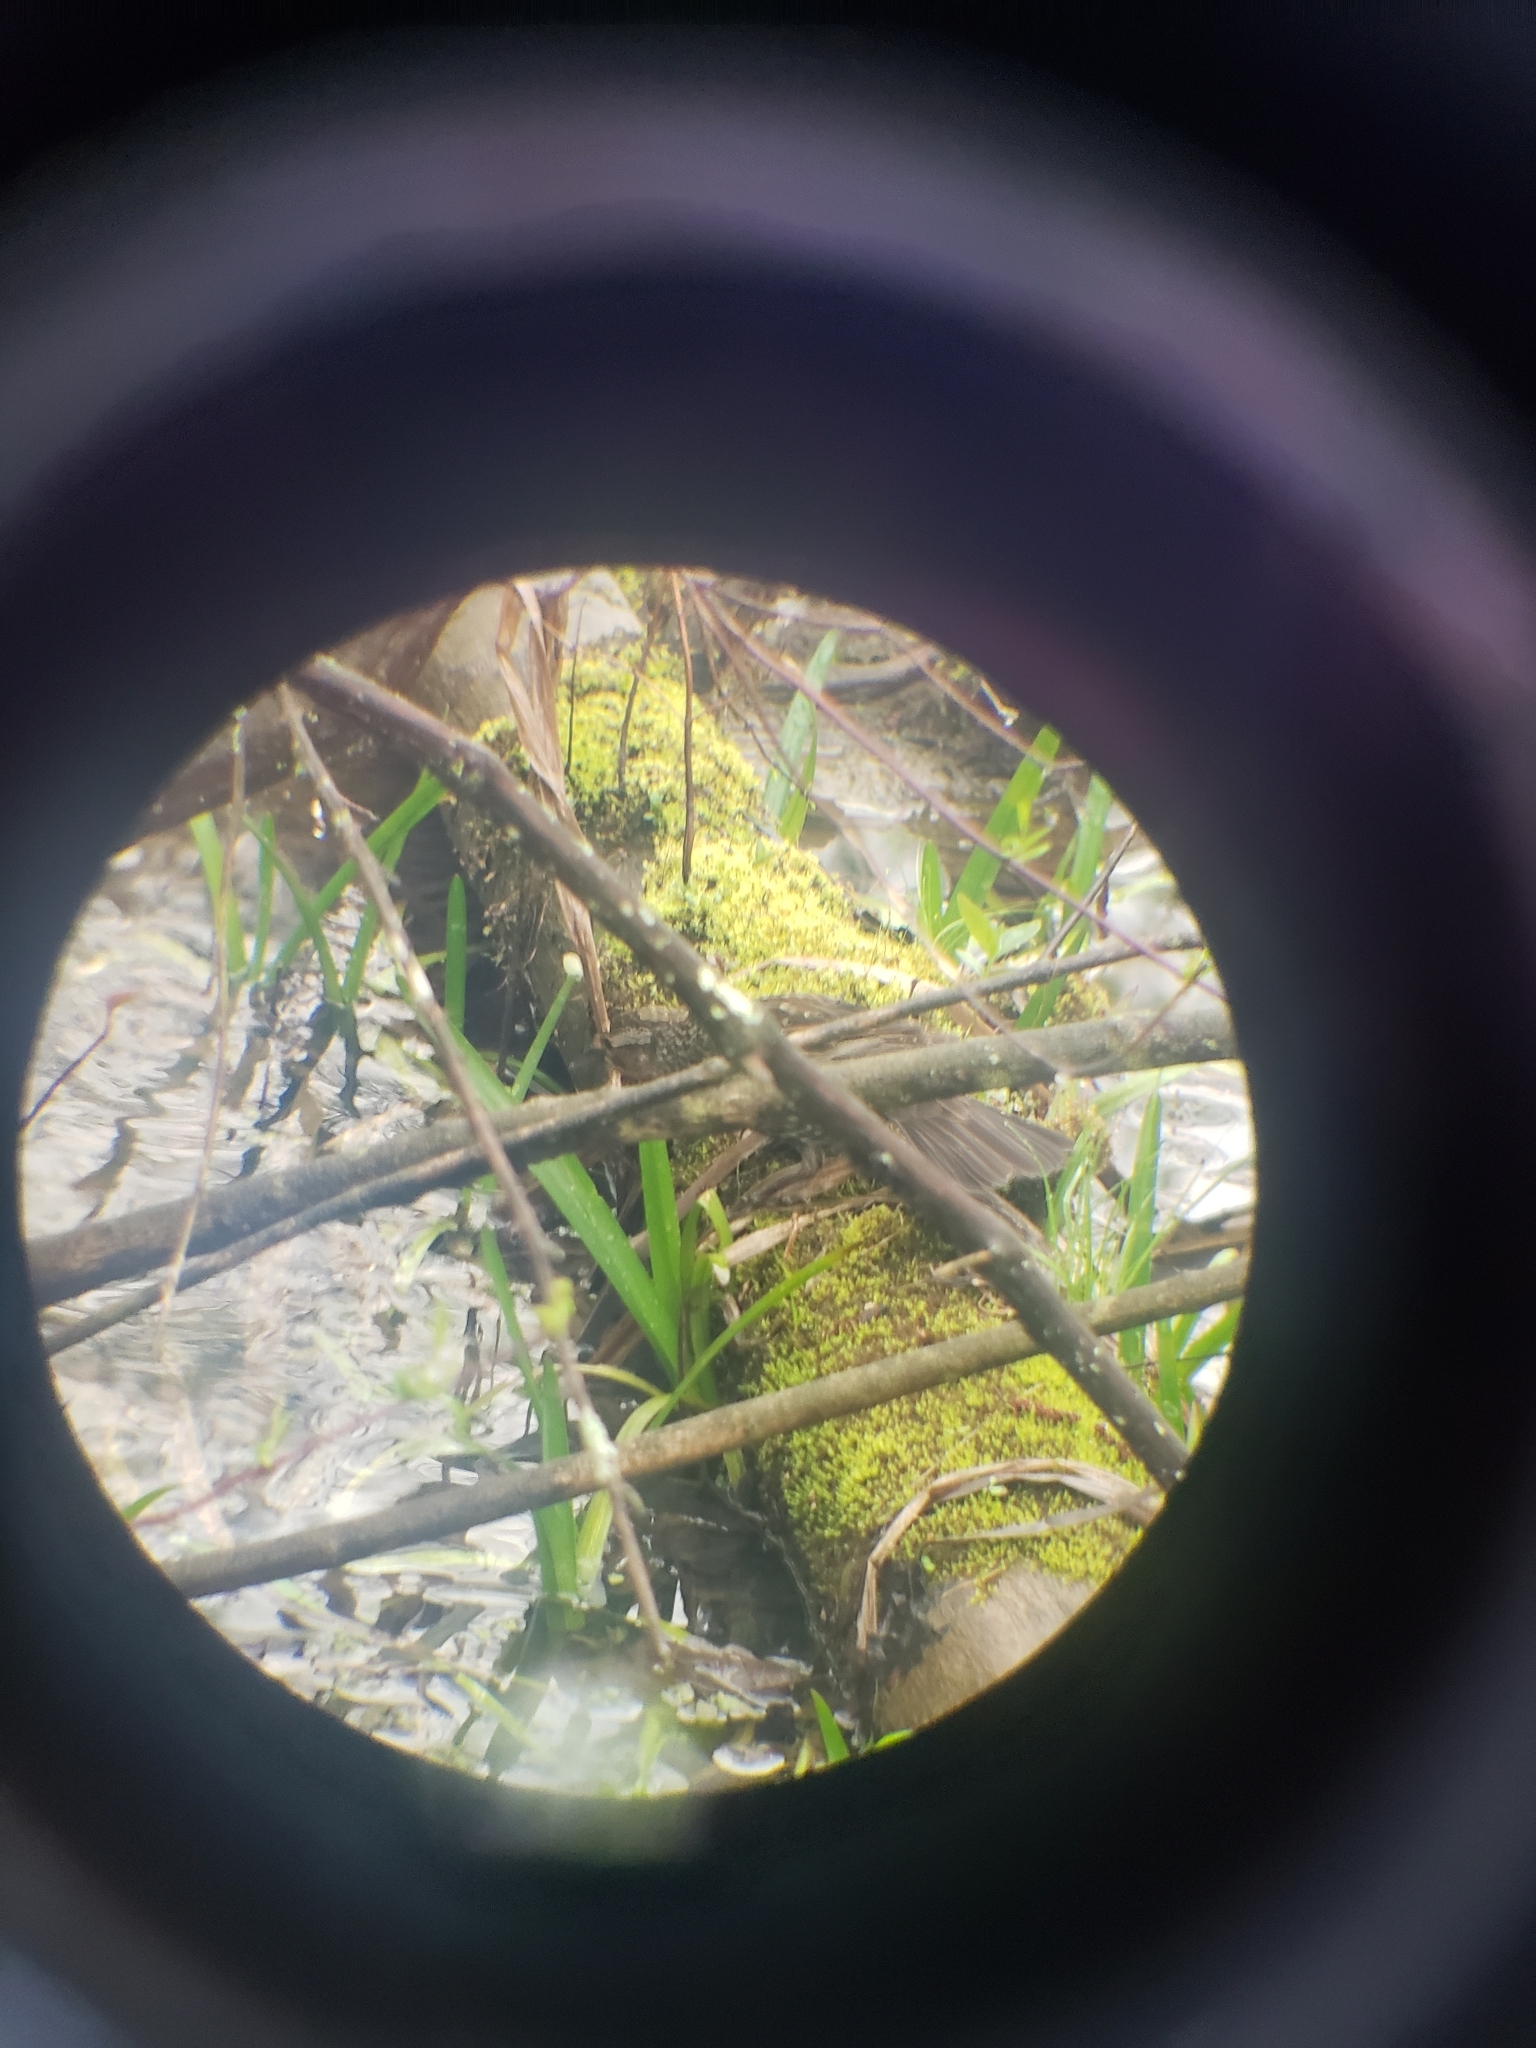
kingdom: Animalia
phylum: Chordata
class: Aves
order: Passeriformes
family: Icteridae
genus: Agelaius
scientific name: Agelaius phoeniceus
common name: Red-winged blackbird
